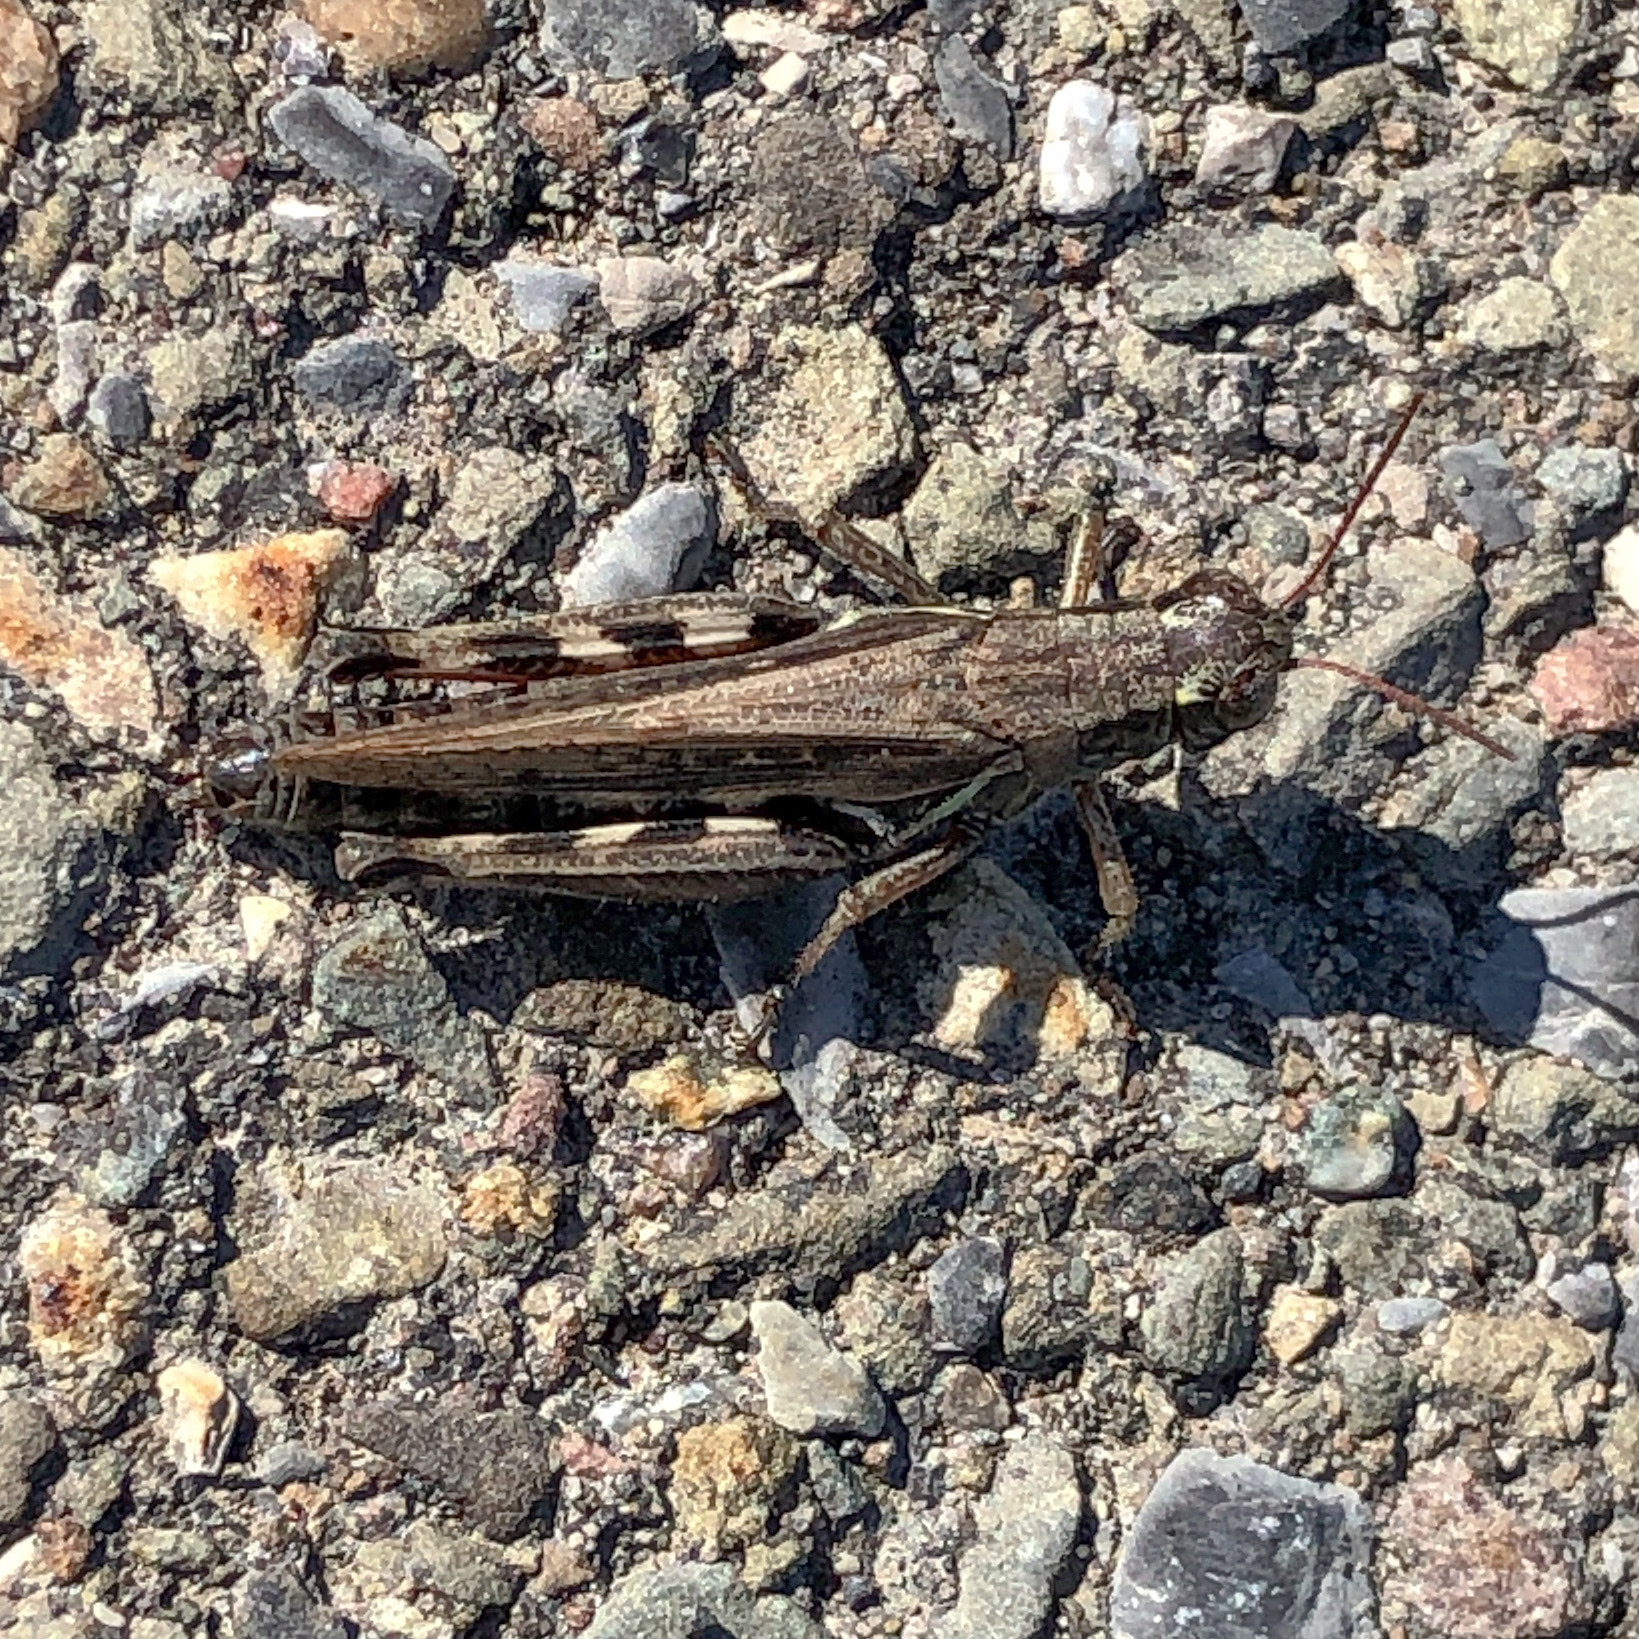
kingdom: Animalia
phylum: Arthropoda
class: Insecta
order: Orthoptera
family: Acrididae
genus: Melanoplus
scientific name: Melanoplus femurrubrum
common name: Red-legged grasshopper
